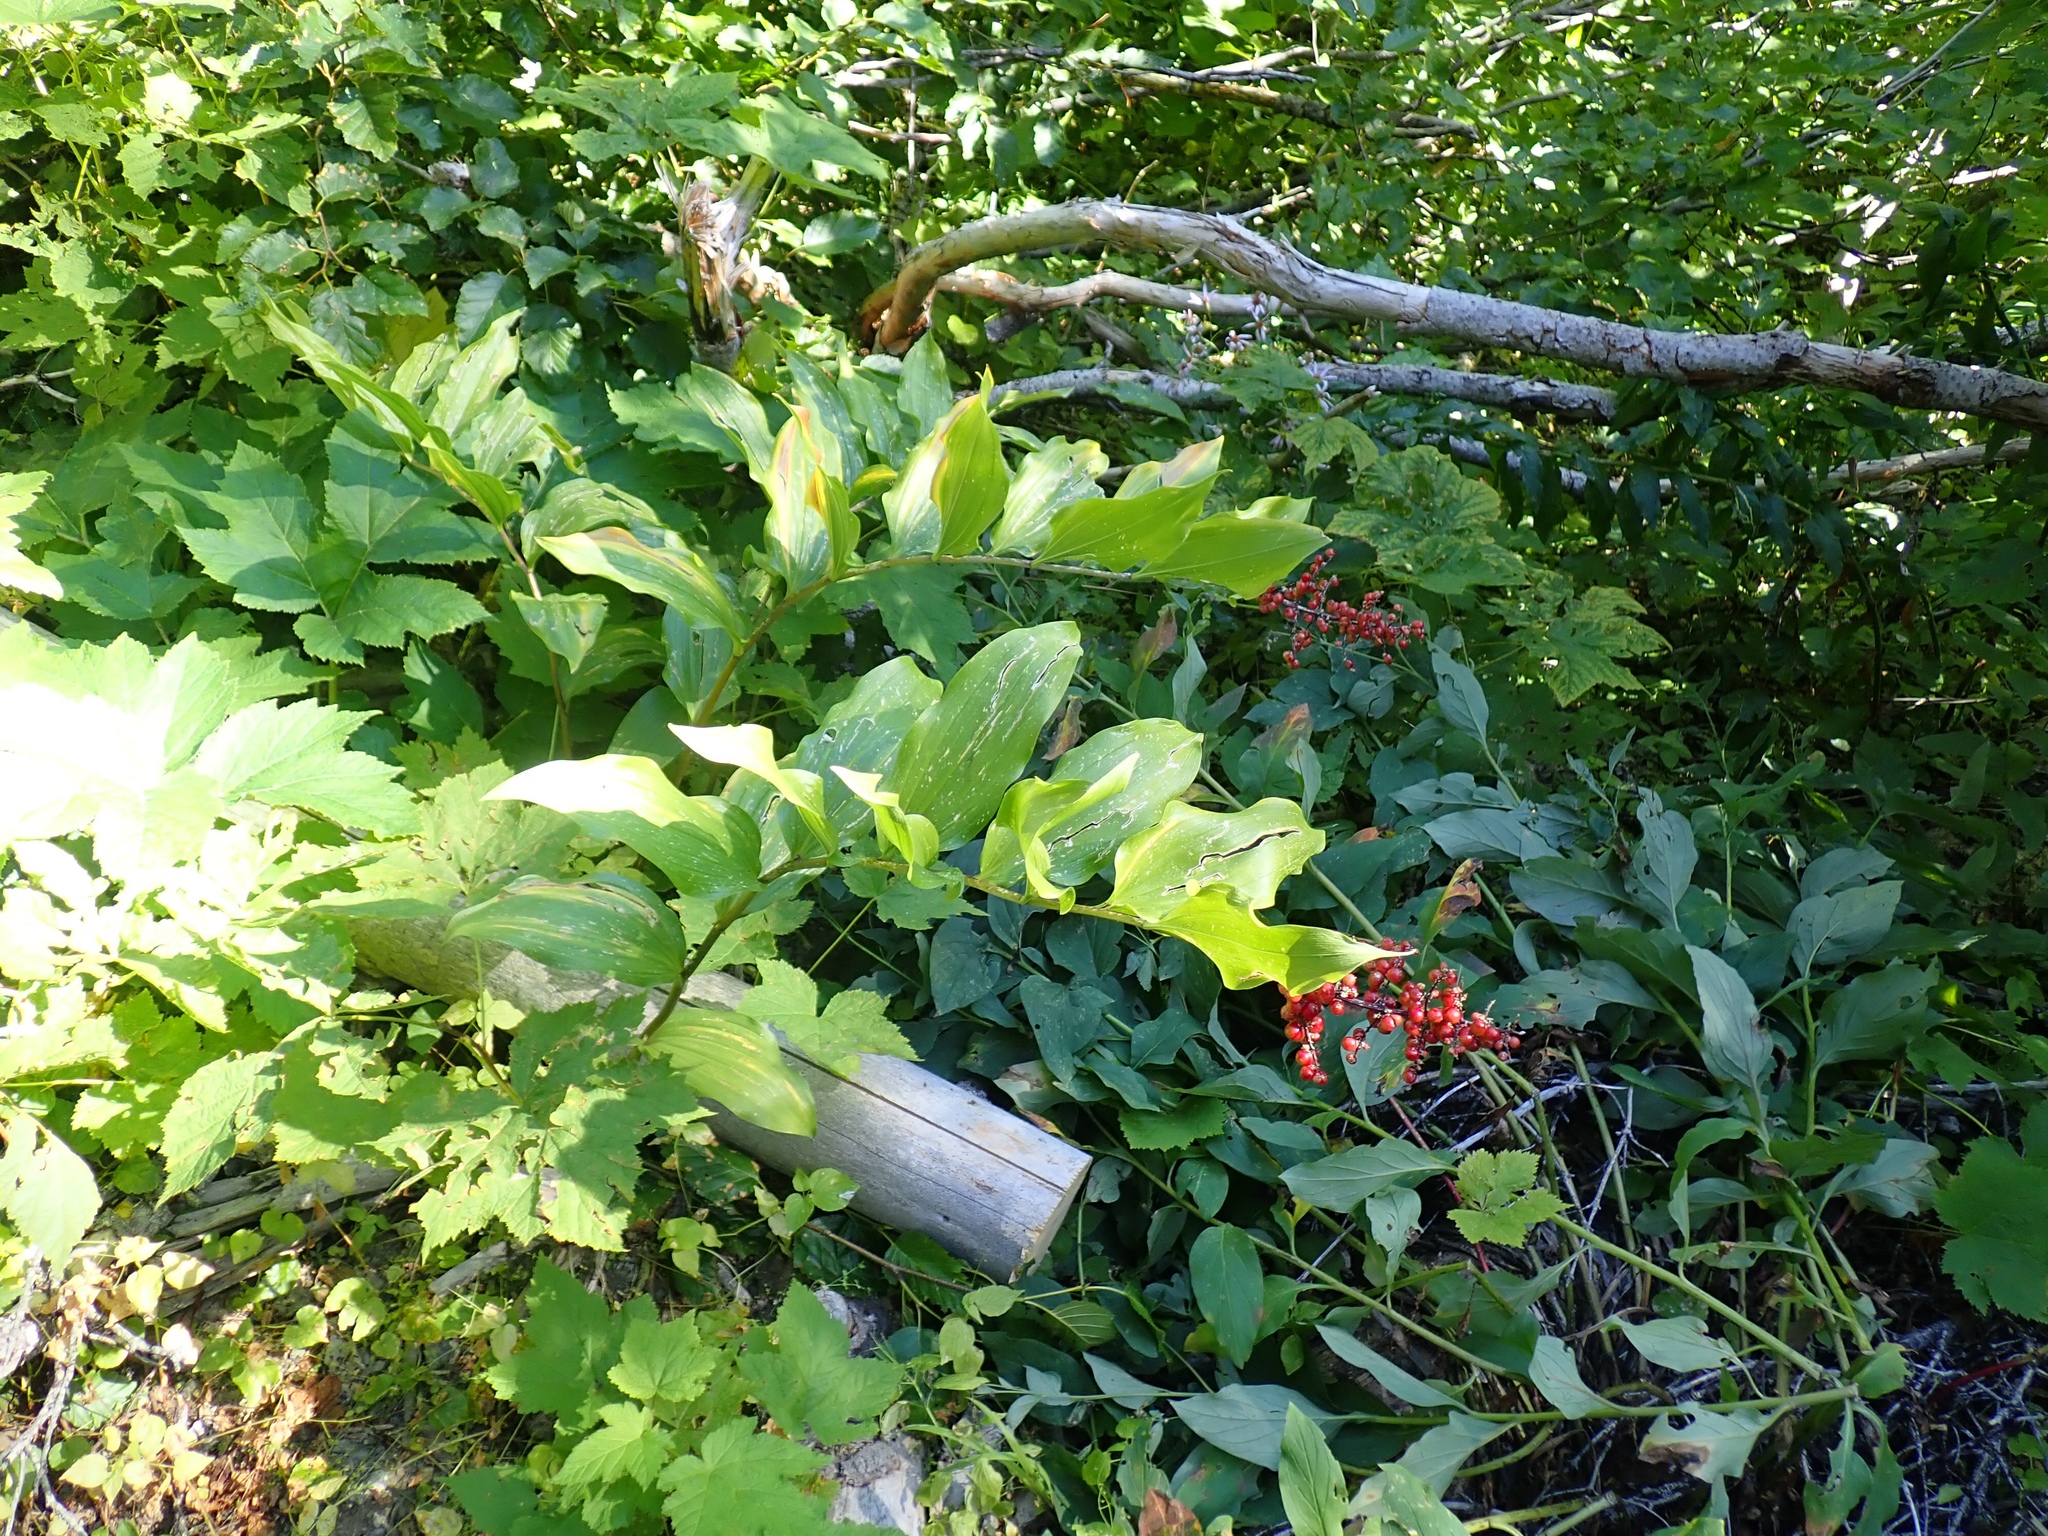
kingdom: Plantae
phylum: Tracheophyta
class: Liliopsida
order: Asparagales
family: Asparagaceae
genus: Maianthemum
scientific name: Maianthemum racemosum
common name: False spikenard
